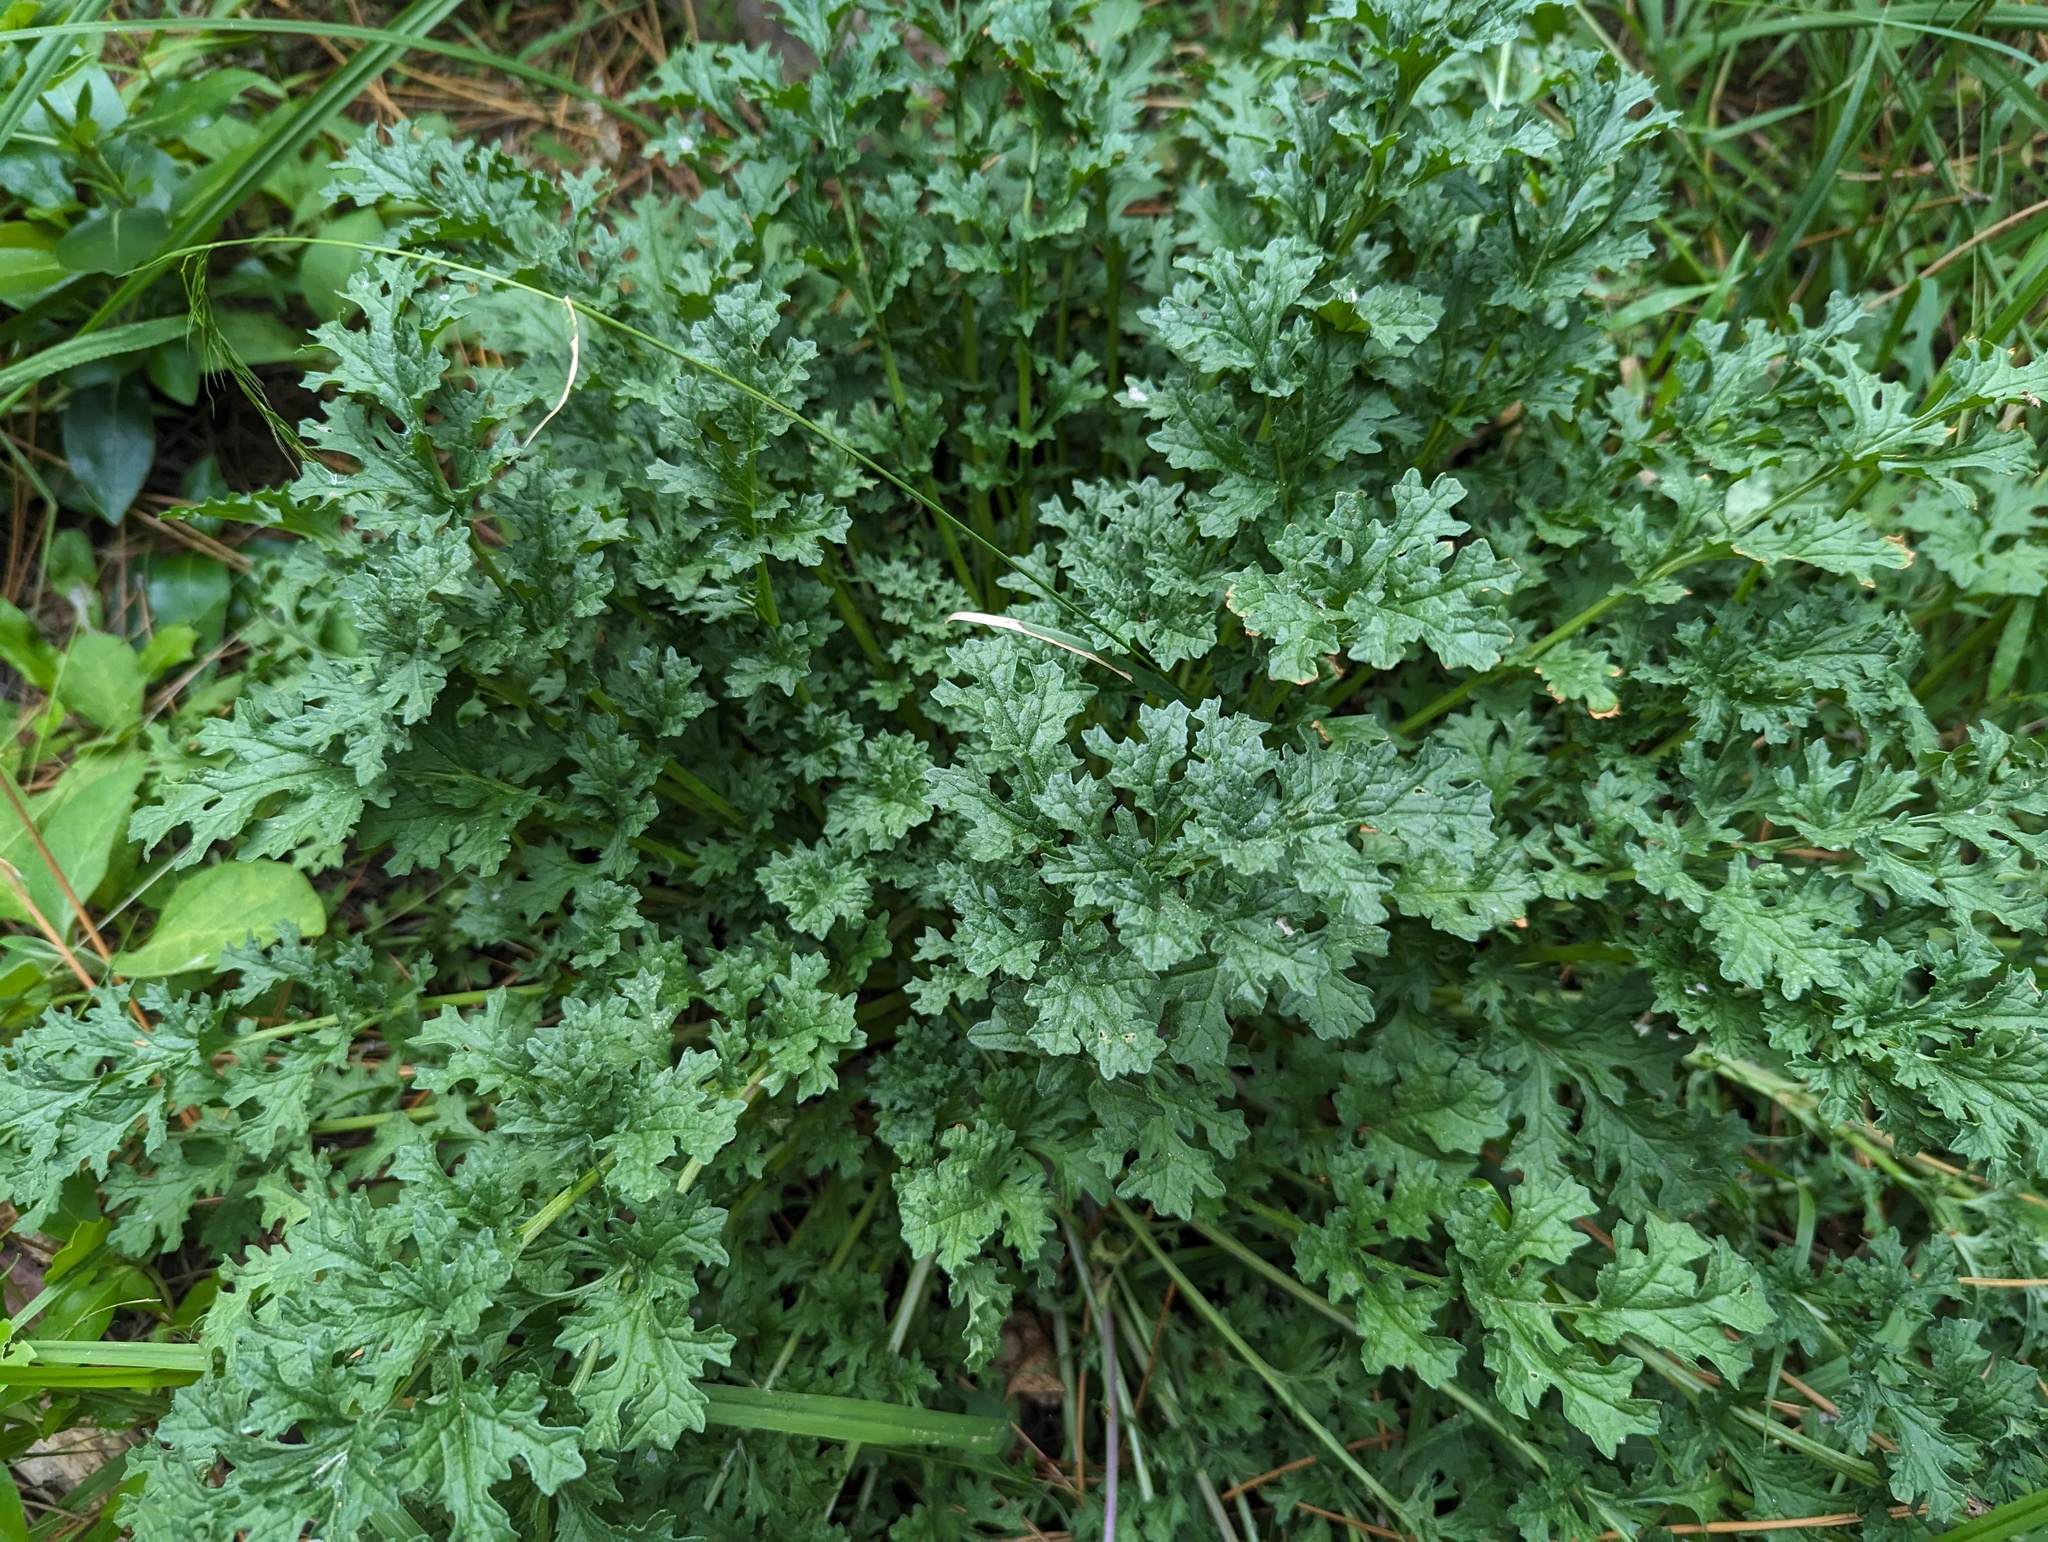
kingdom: Plantae
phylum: Tracheophyta
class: Magnoliopsida
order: Asterales
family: Asteraceae
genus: Jacobaea
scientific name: Jacobaea vulgaris
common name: Stinking willie
